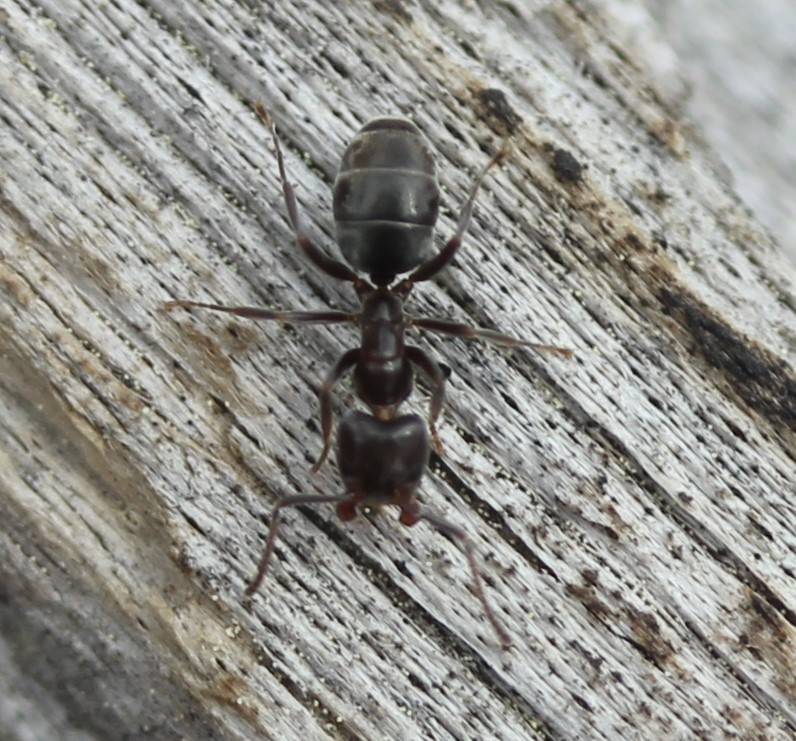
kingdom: Animalia
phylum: Arthropoda
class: Insecta
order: Hymenoptera
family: Formicidae
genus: Liometopum
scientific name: Liometopum luctuosum
